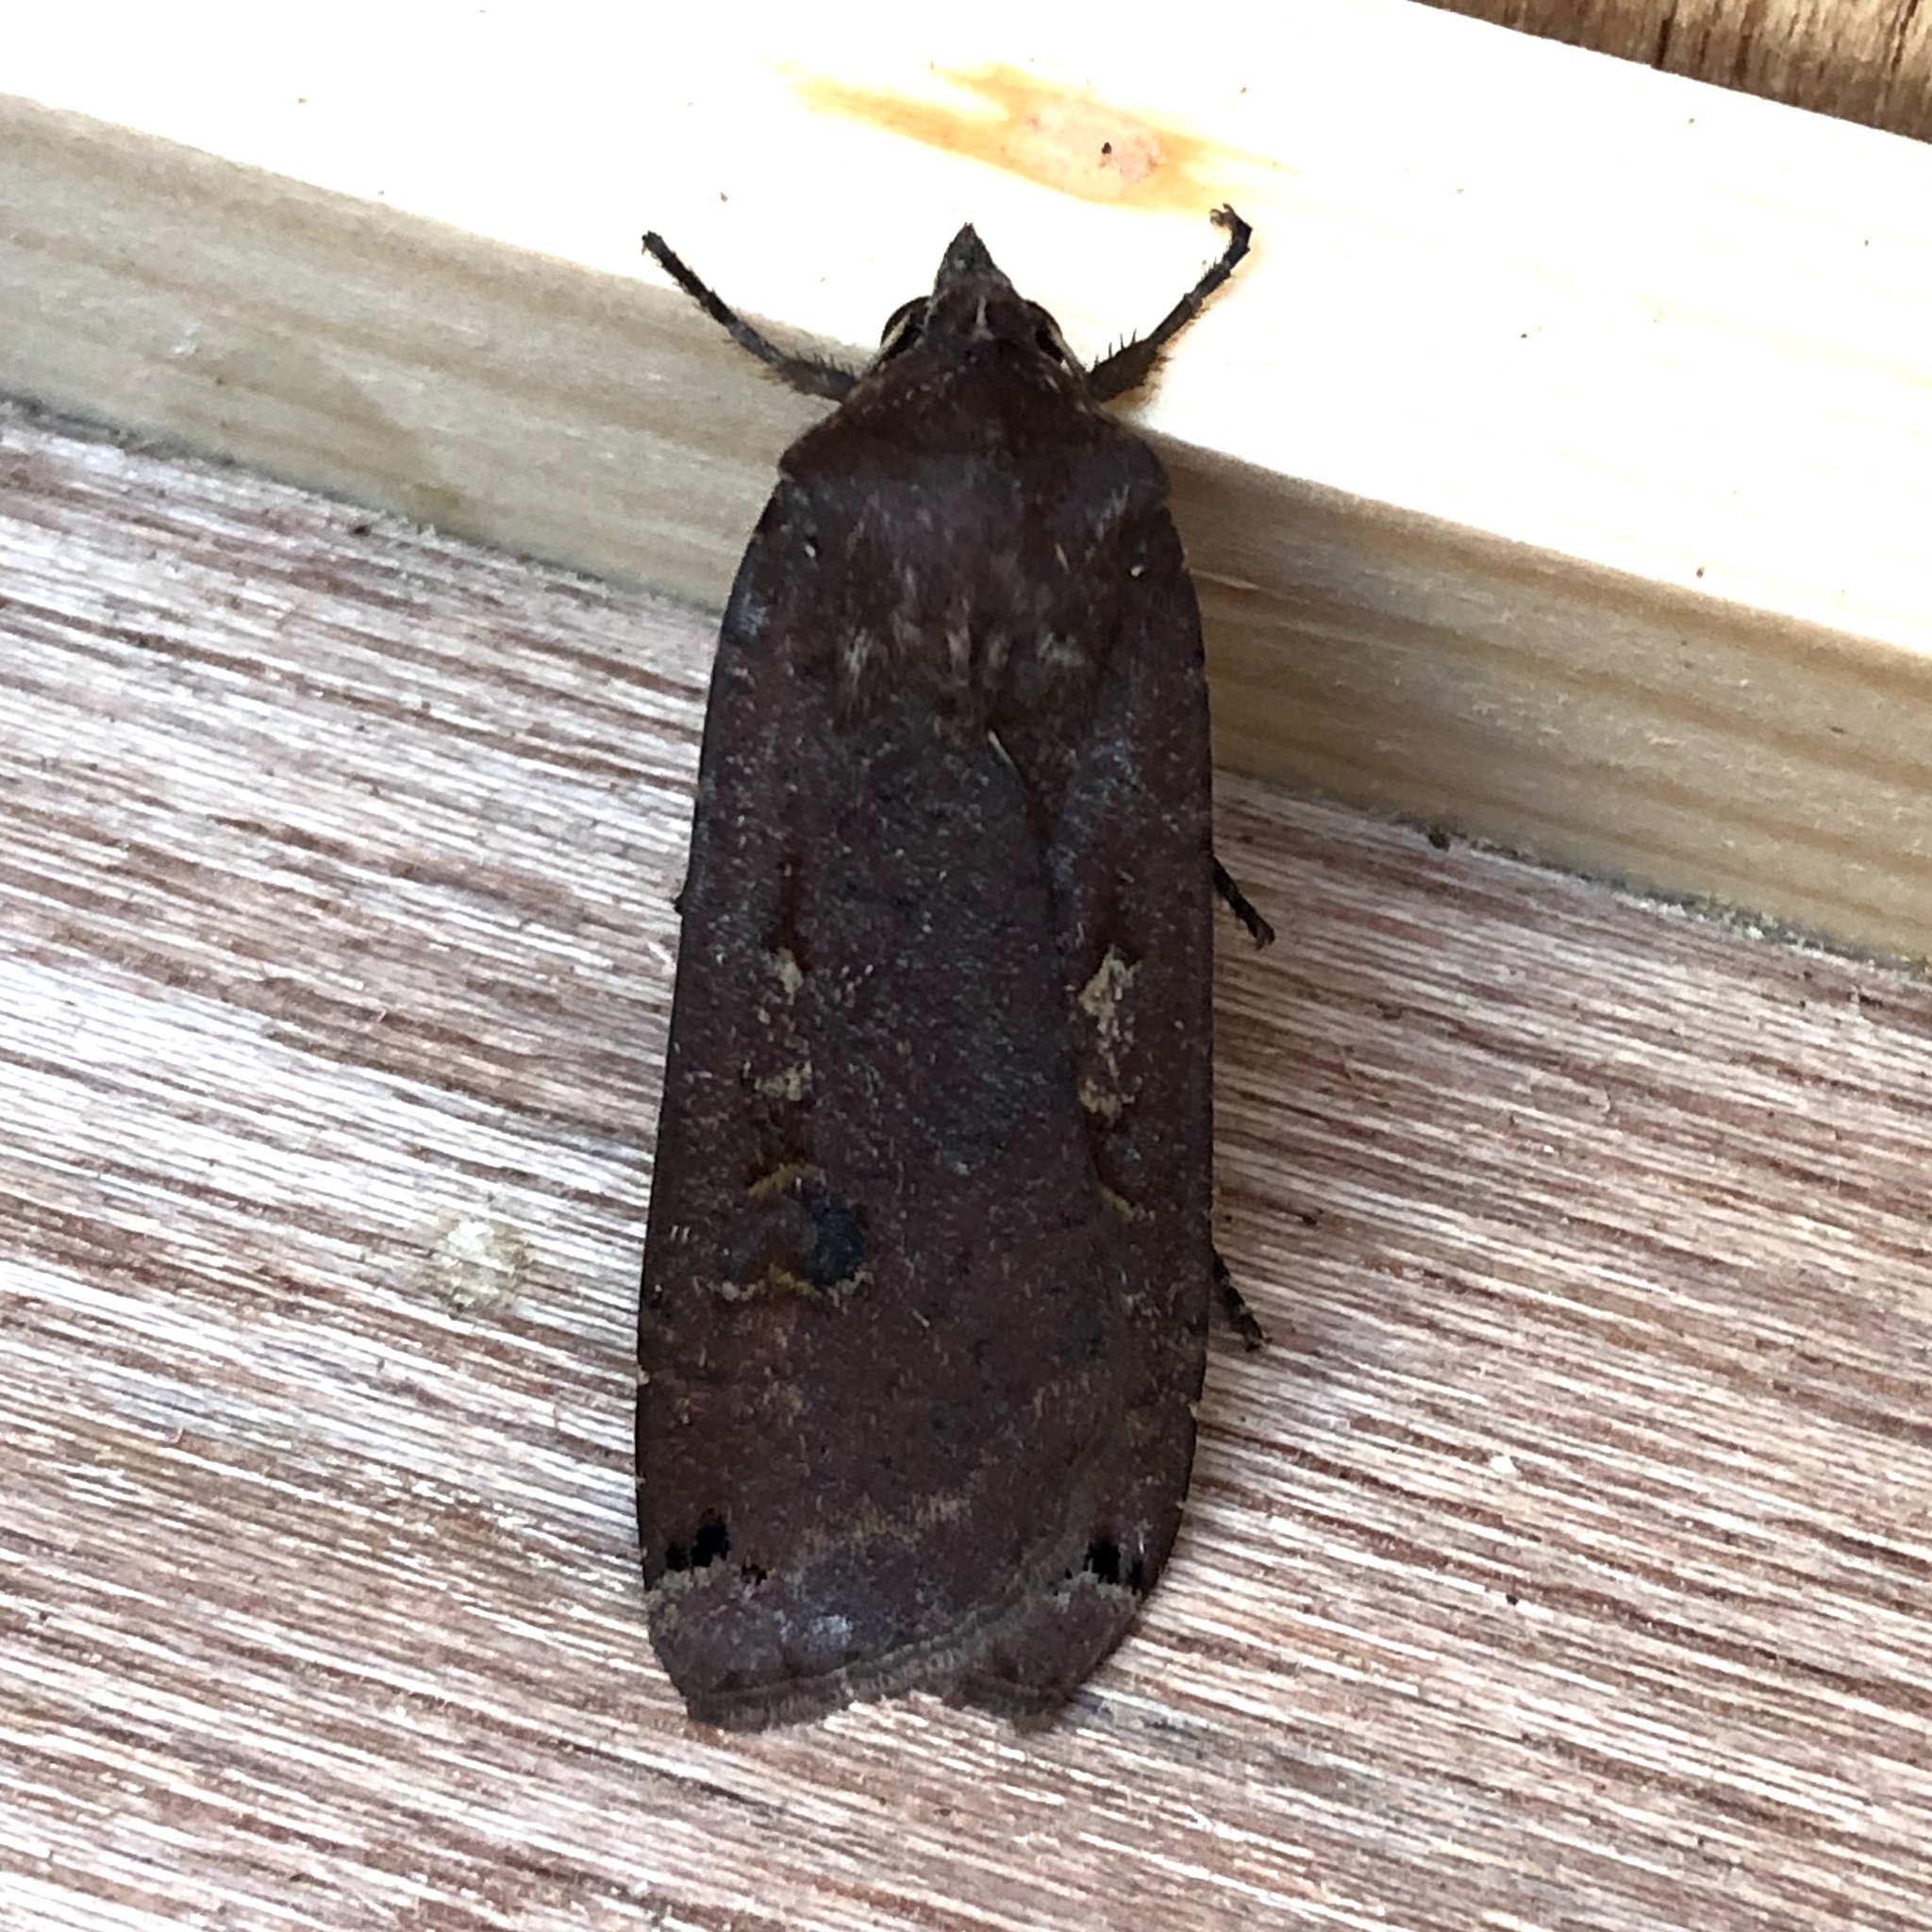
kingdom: Animalia
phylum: Arthropoda
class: Insecta
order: Lepidoptera
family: Noctuidae
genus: Noctua
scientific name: Noctua pronuba
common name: Large yellow underwing
